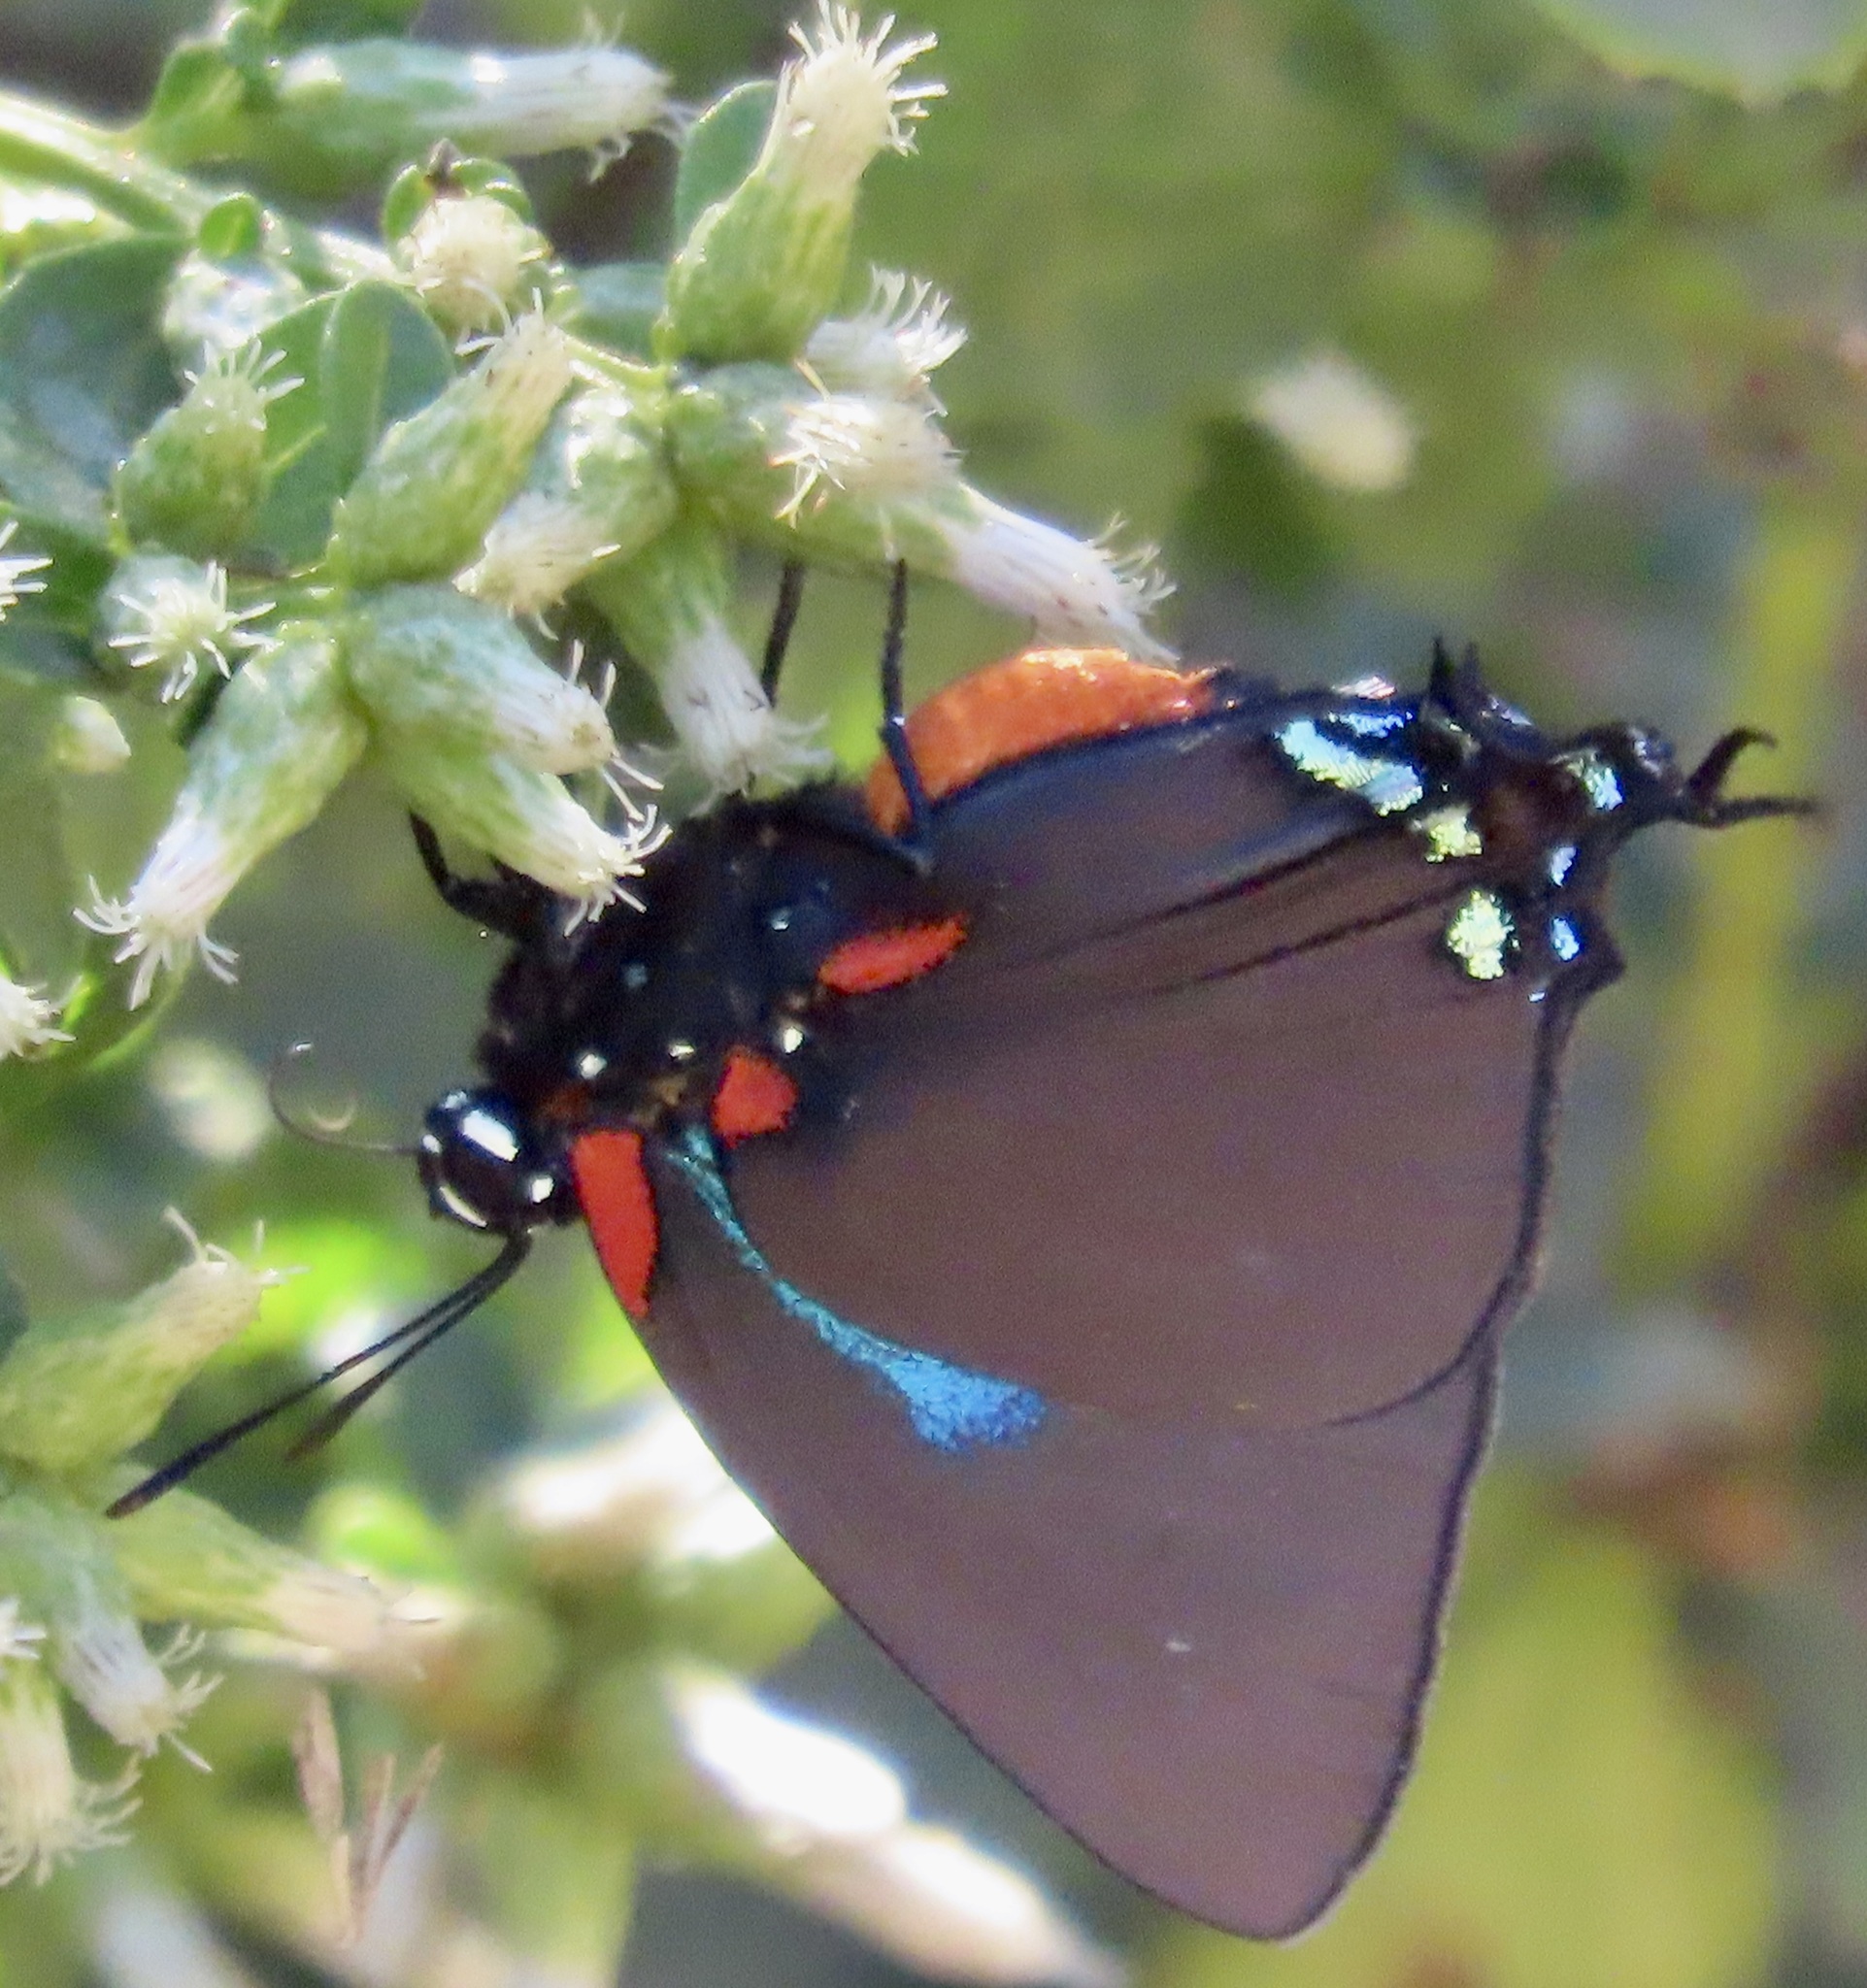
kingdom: Animalia
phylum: Arthropoda
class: Insecta
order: Lepidoptera
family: Lycaenidae
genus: Atlides
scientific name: Atlides halesus
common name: Great purple hairstreak
